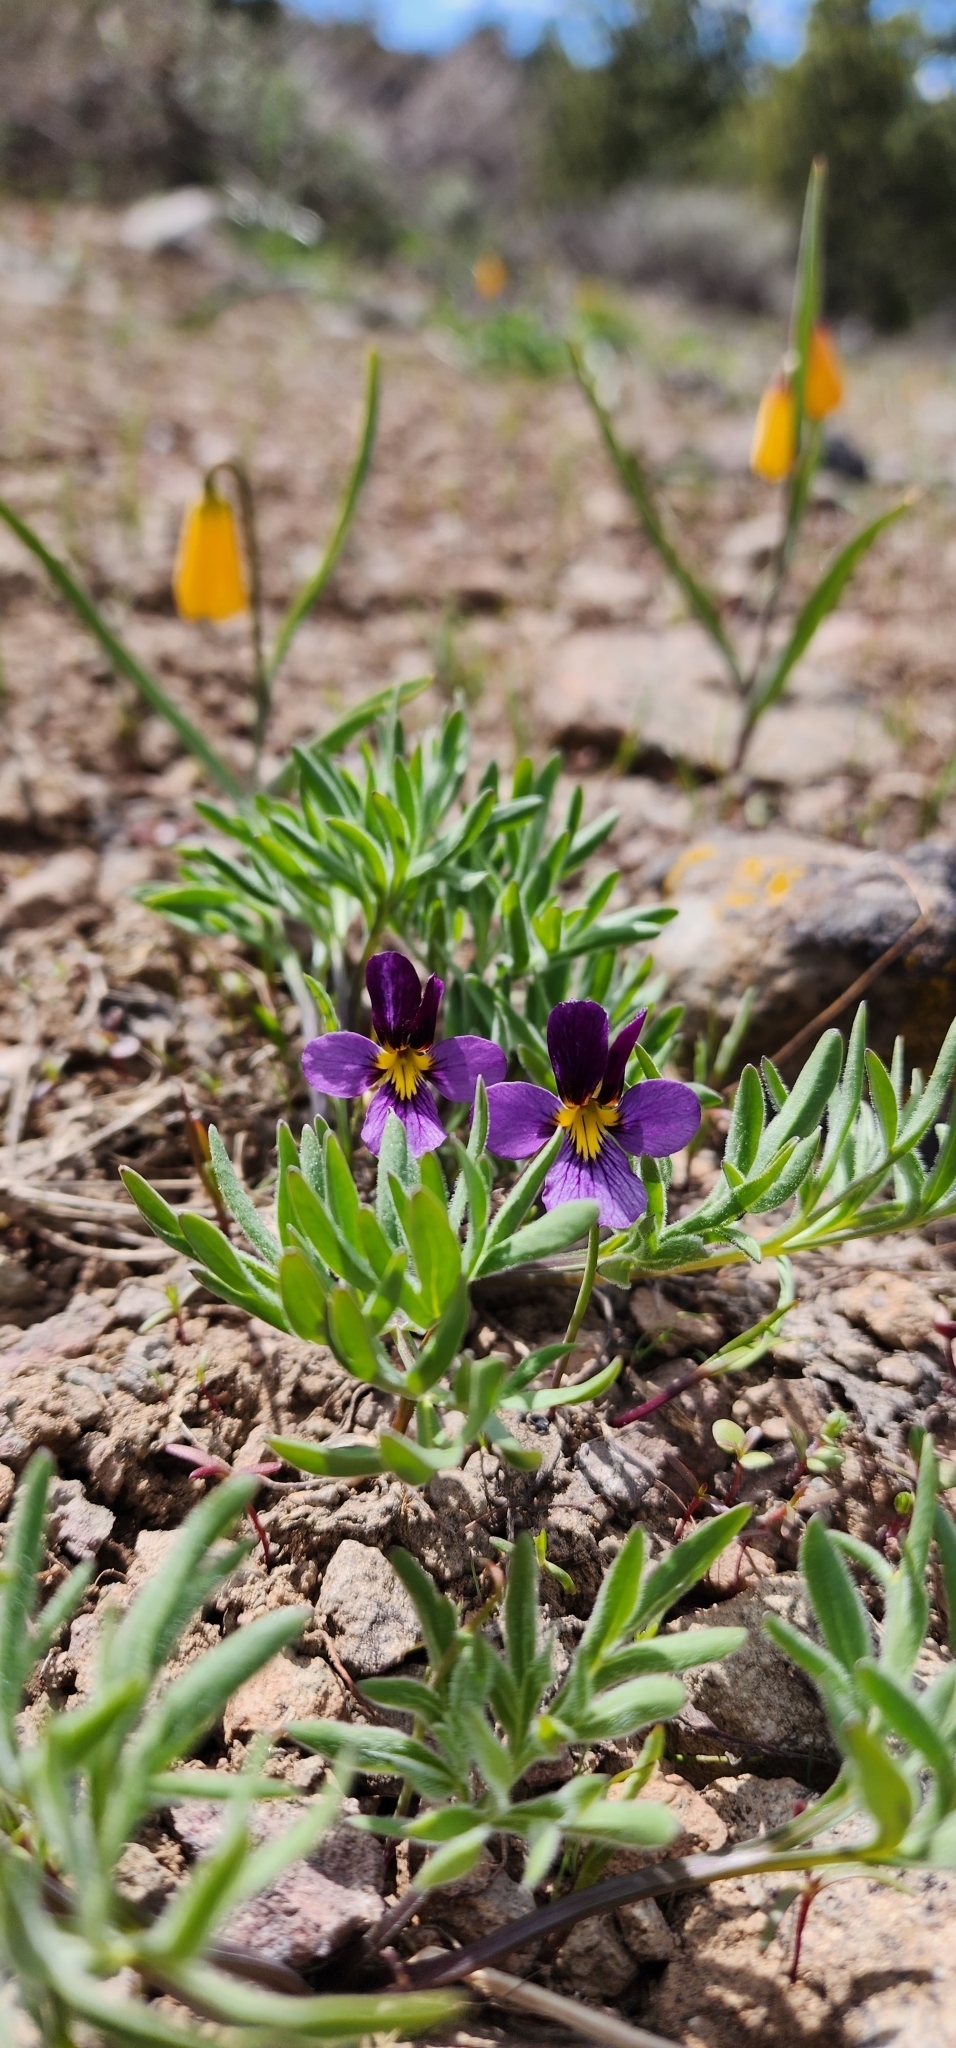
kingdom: Plantae
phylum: Tracheophyta
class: Magnoliopsida
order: Malpighiales
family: Violaceae
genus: Viola
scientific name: Viola beckwithii
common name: Beckwith's violet
